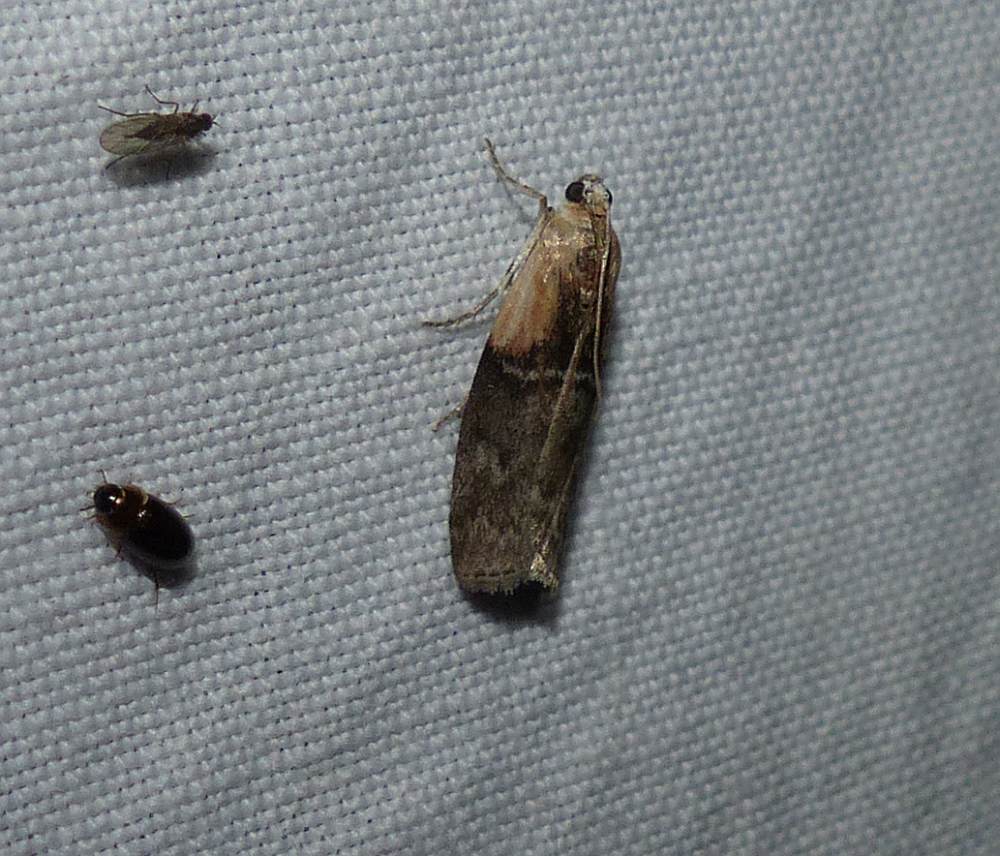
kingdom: Animalia
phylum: Arthropoda
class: Insecta
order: Lepidoptera
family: Pyralidae
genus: Sciota
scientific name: Sciota basilaris
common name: Yellow-shouldered leafroller
